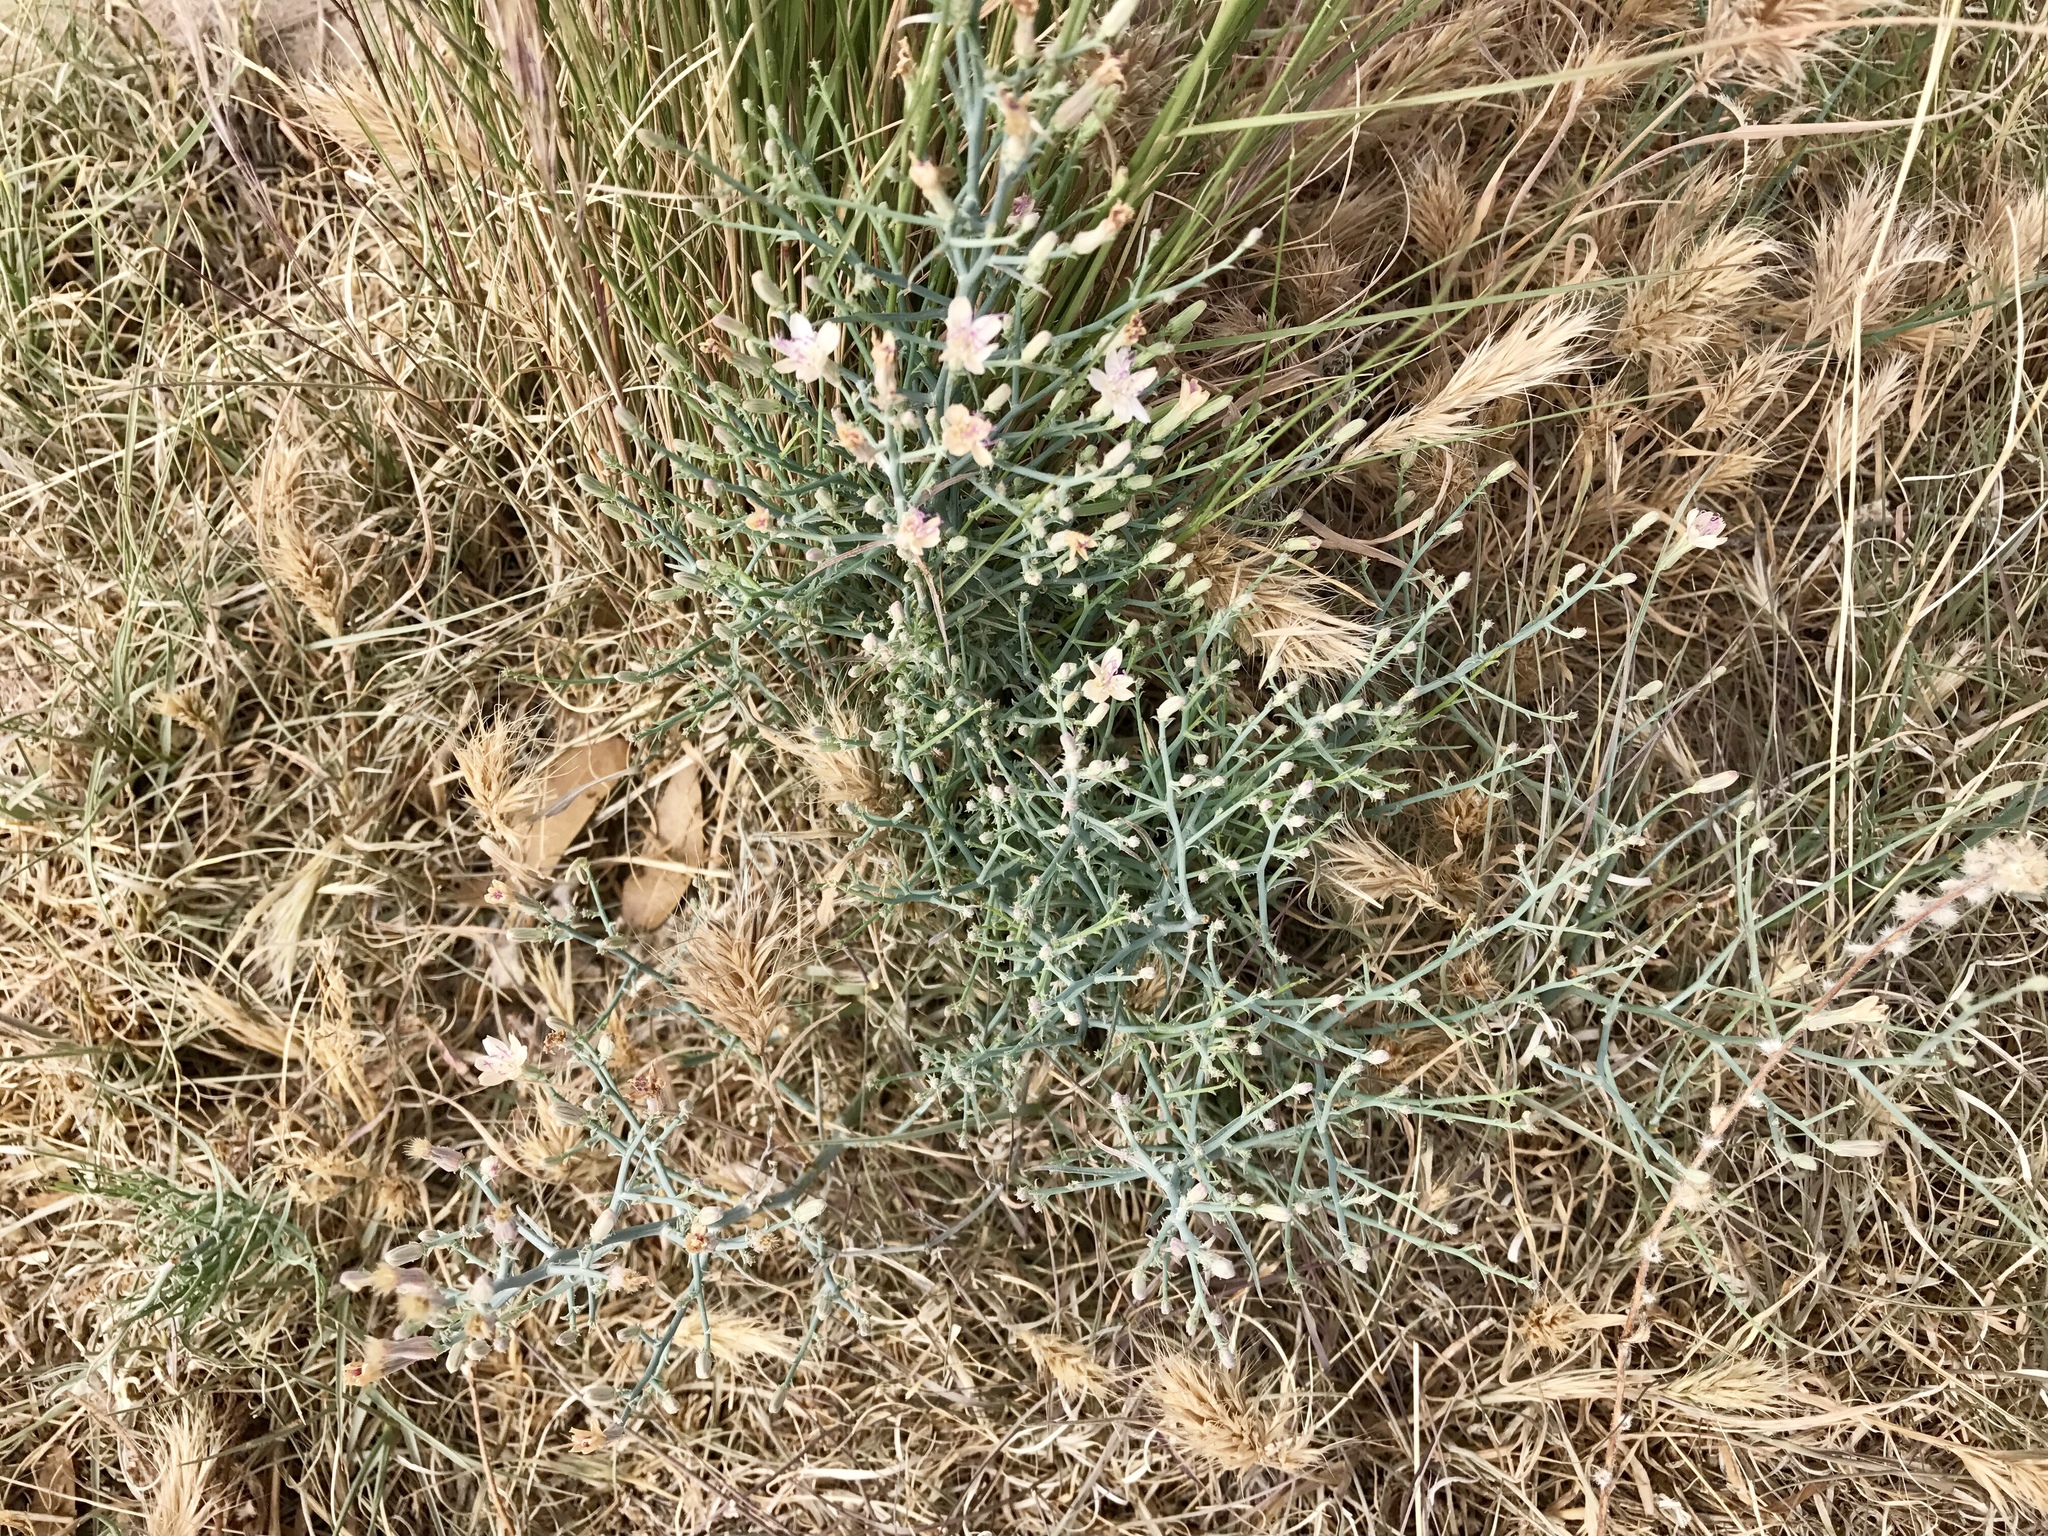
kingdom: Plantae
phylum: Tracheophyta
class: Magnoliopsida
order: Asterales
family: Asteraceae
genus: Stephanomeria
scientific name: Stephanomeria pauciflora
